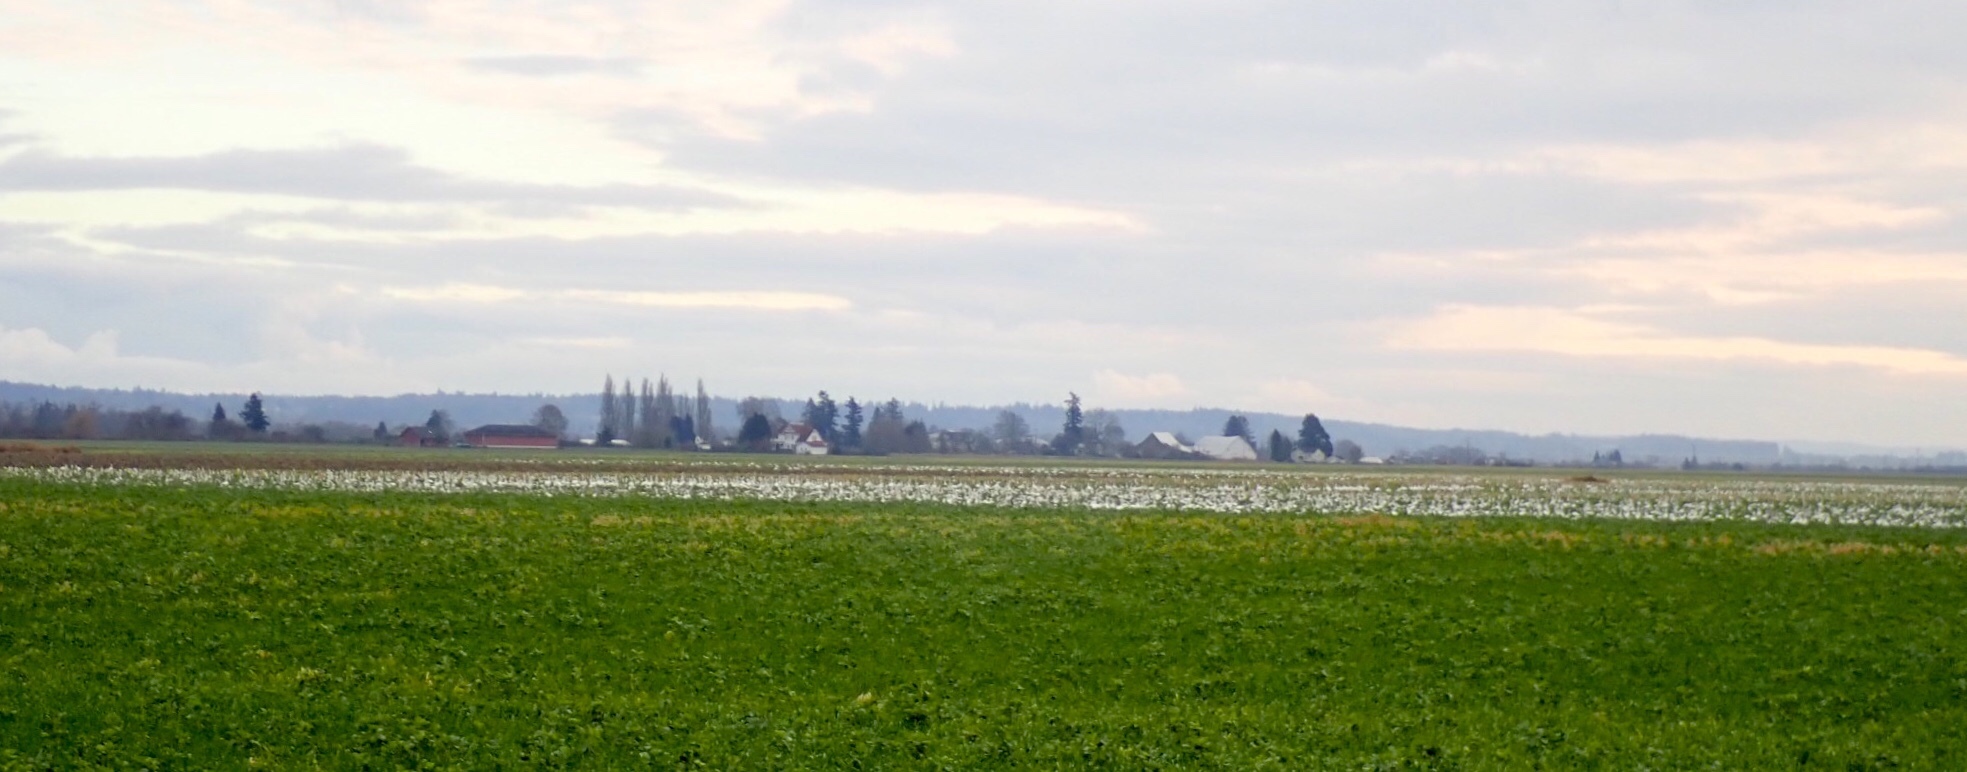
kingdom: Animalia
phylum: Chordata
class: Aves
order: Anseriformes
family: Anatidae
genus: Anser
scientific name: Anser caerulescens
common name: Snow goose
